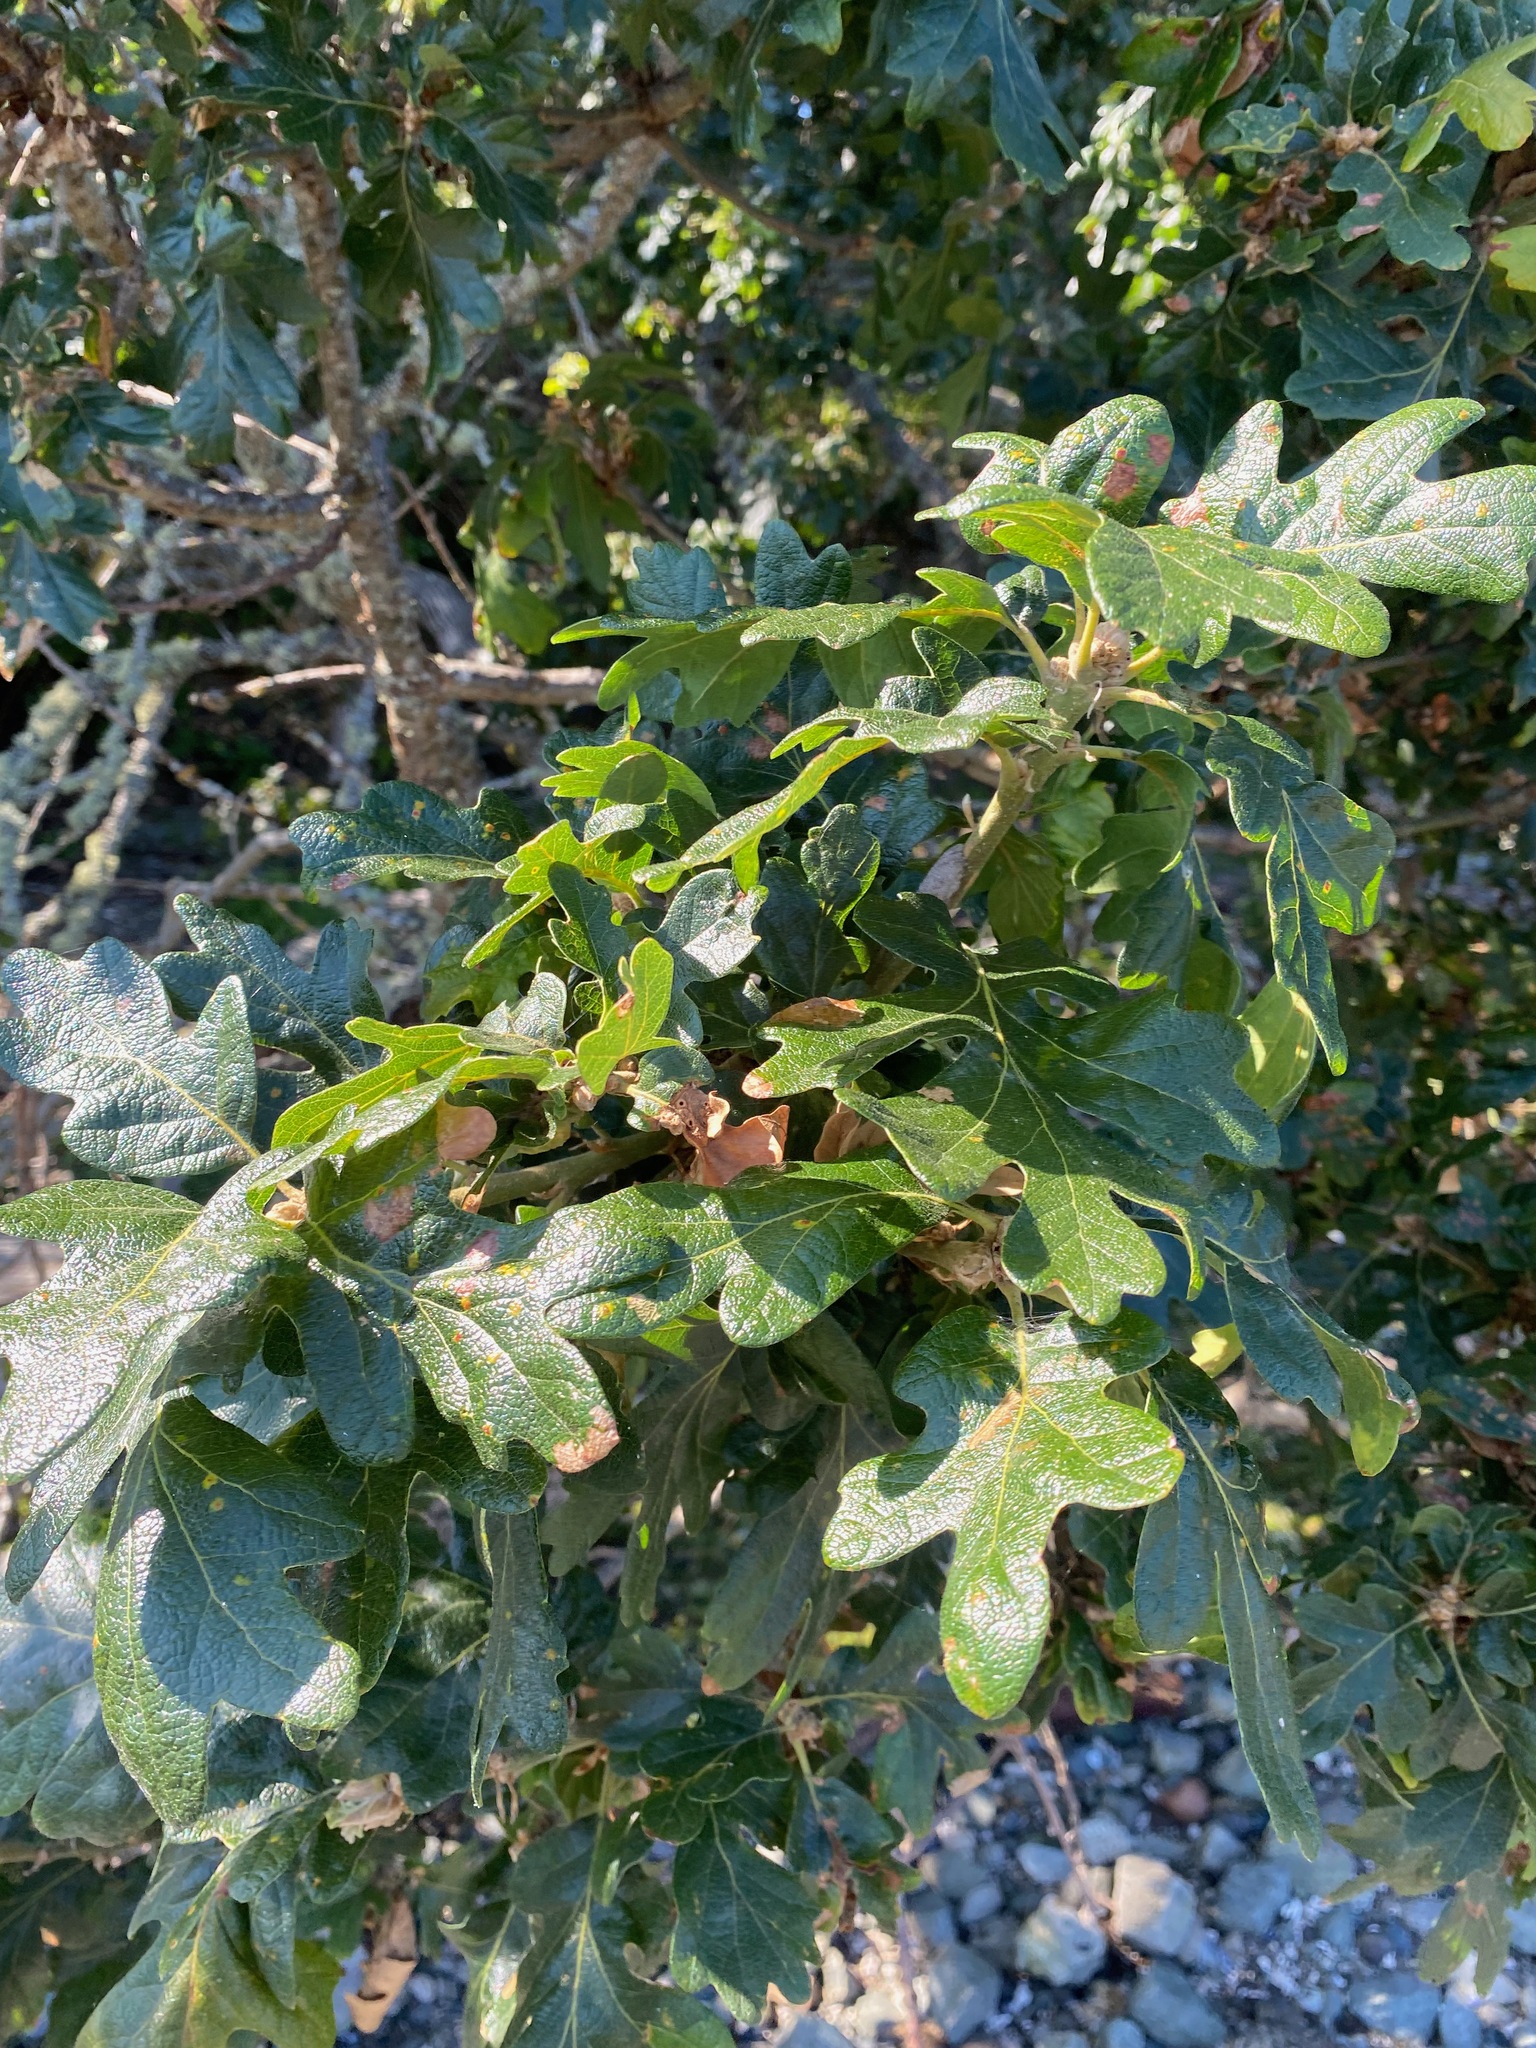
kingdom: Plantae
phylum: Tracheophyta
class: Magnoliopsida
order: Fagales
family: Fagaceae
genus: Quercus
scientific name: Quercus garryana
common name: Garry oak
